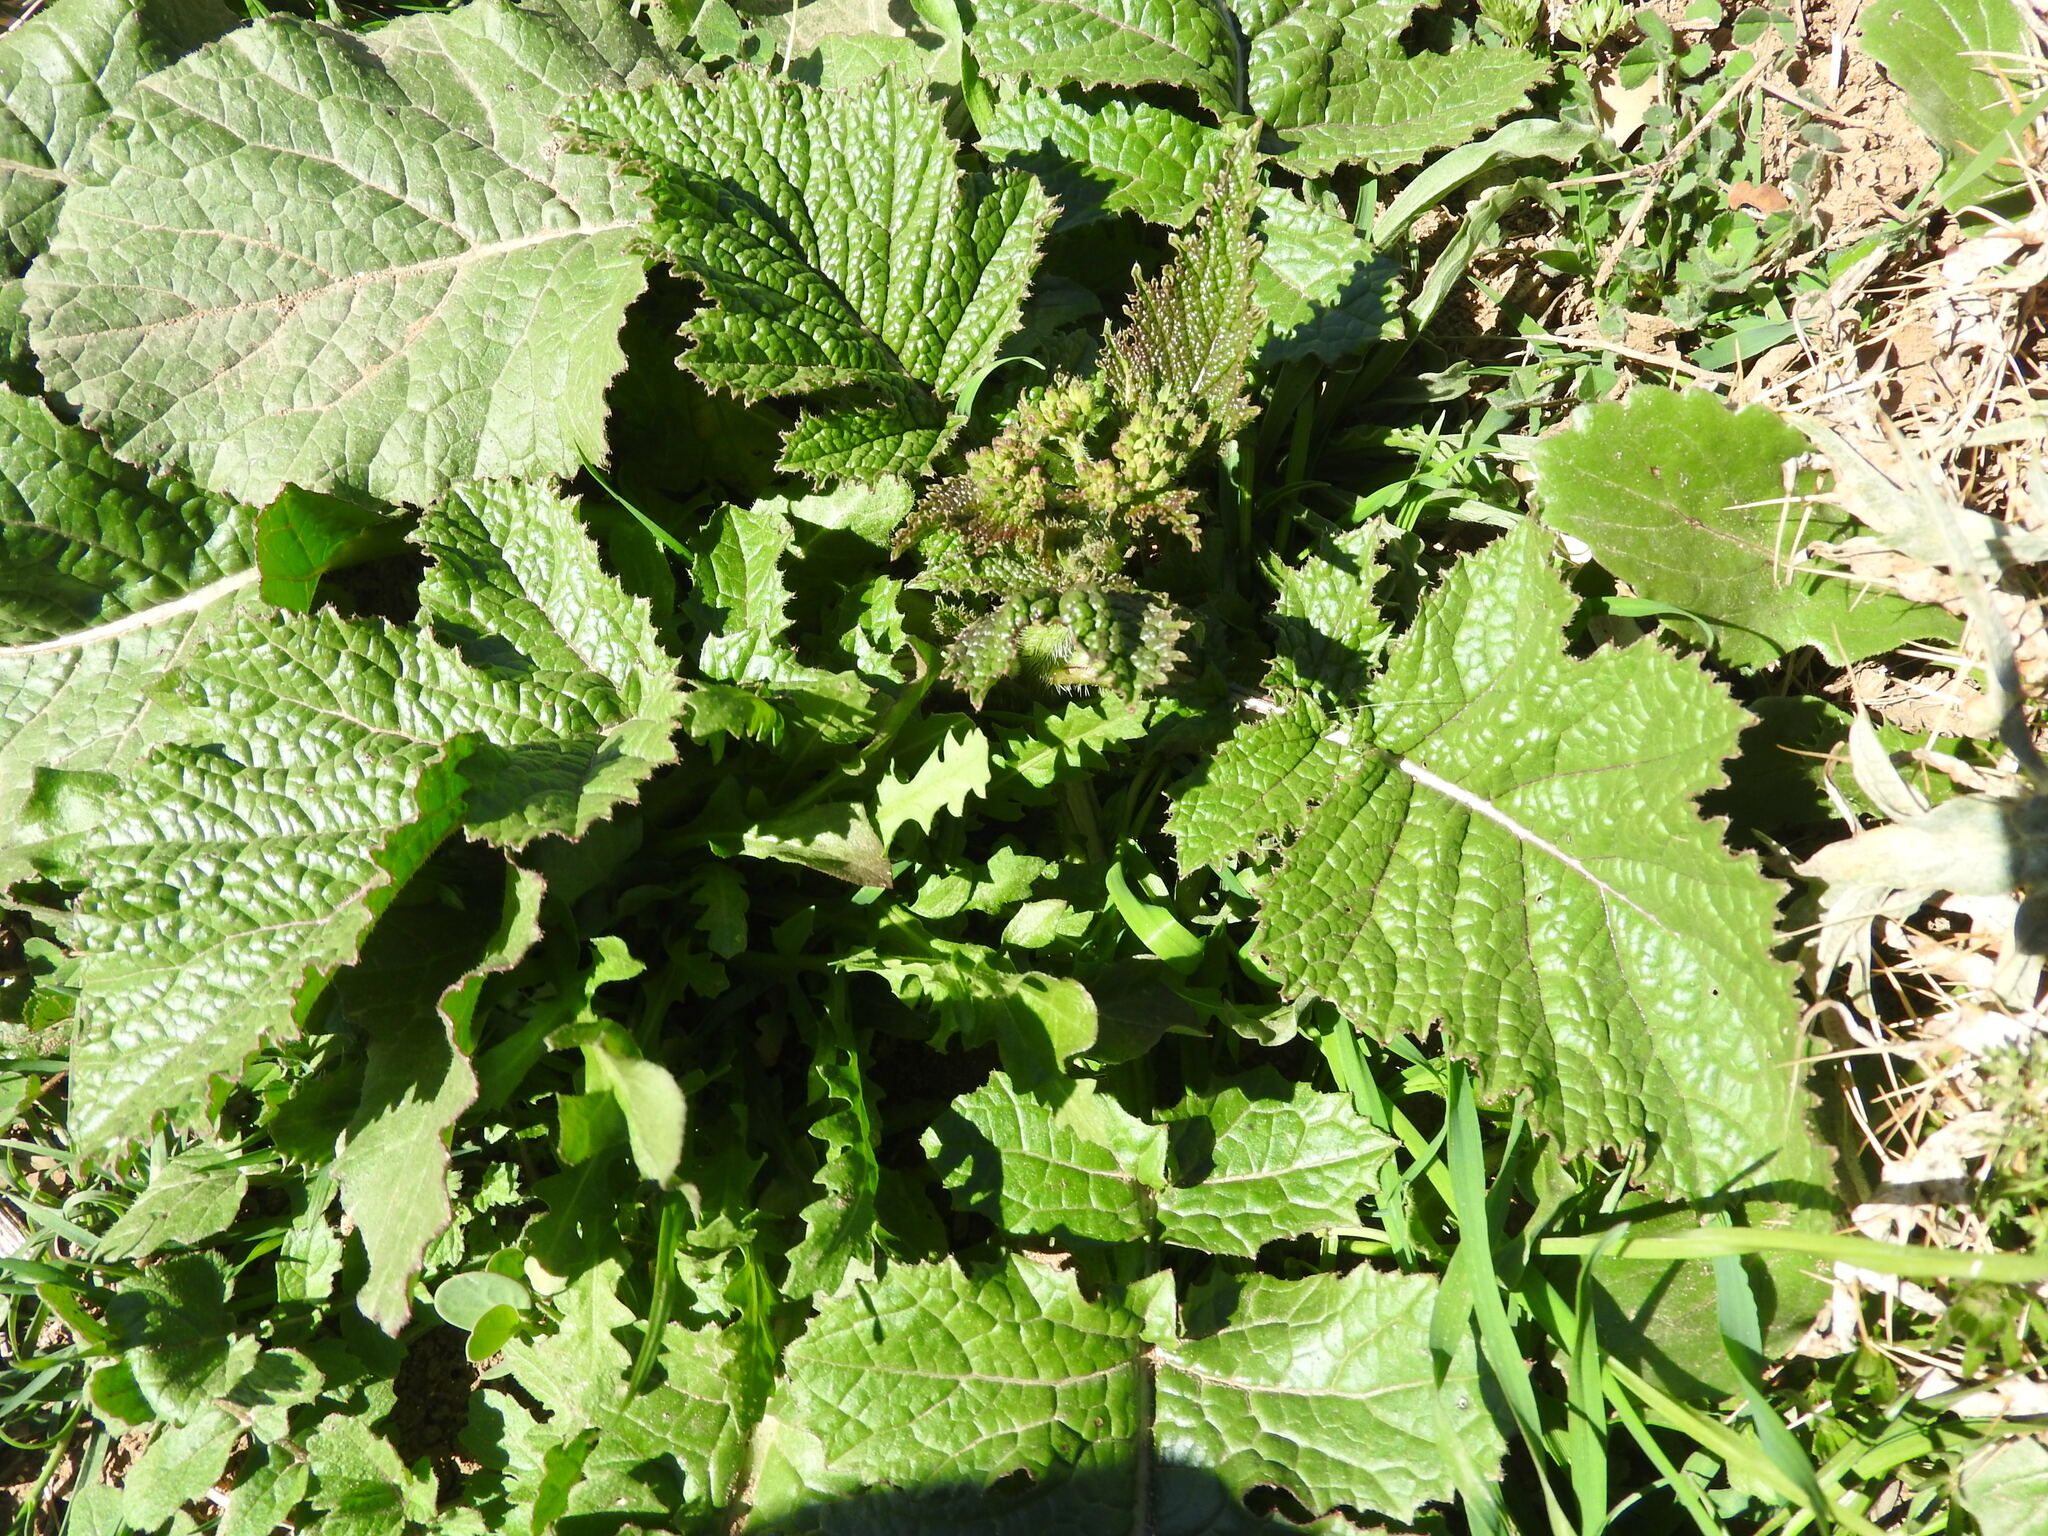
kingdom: Plantae
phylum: Tracheophyta
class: Magnoliopsida
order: Brassicales
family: Brassicaceae
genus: Sinapis
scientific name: Sinapis alba
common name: White mustard
